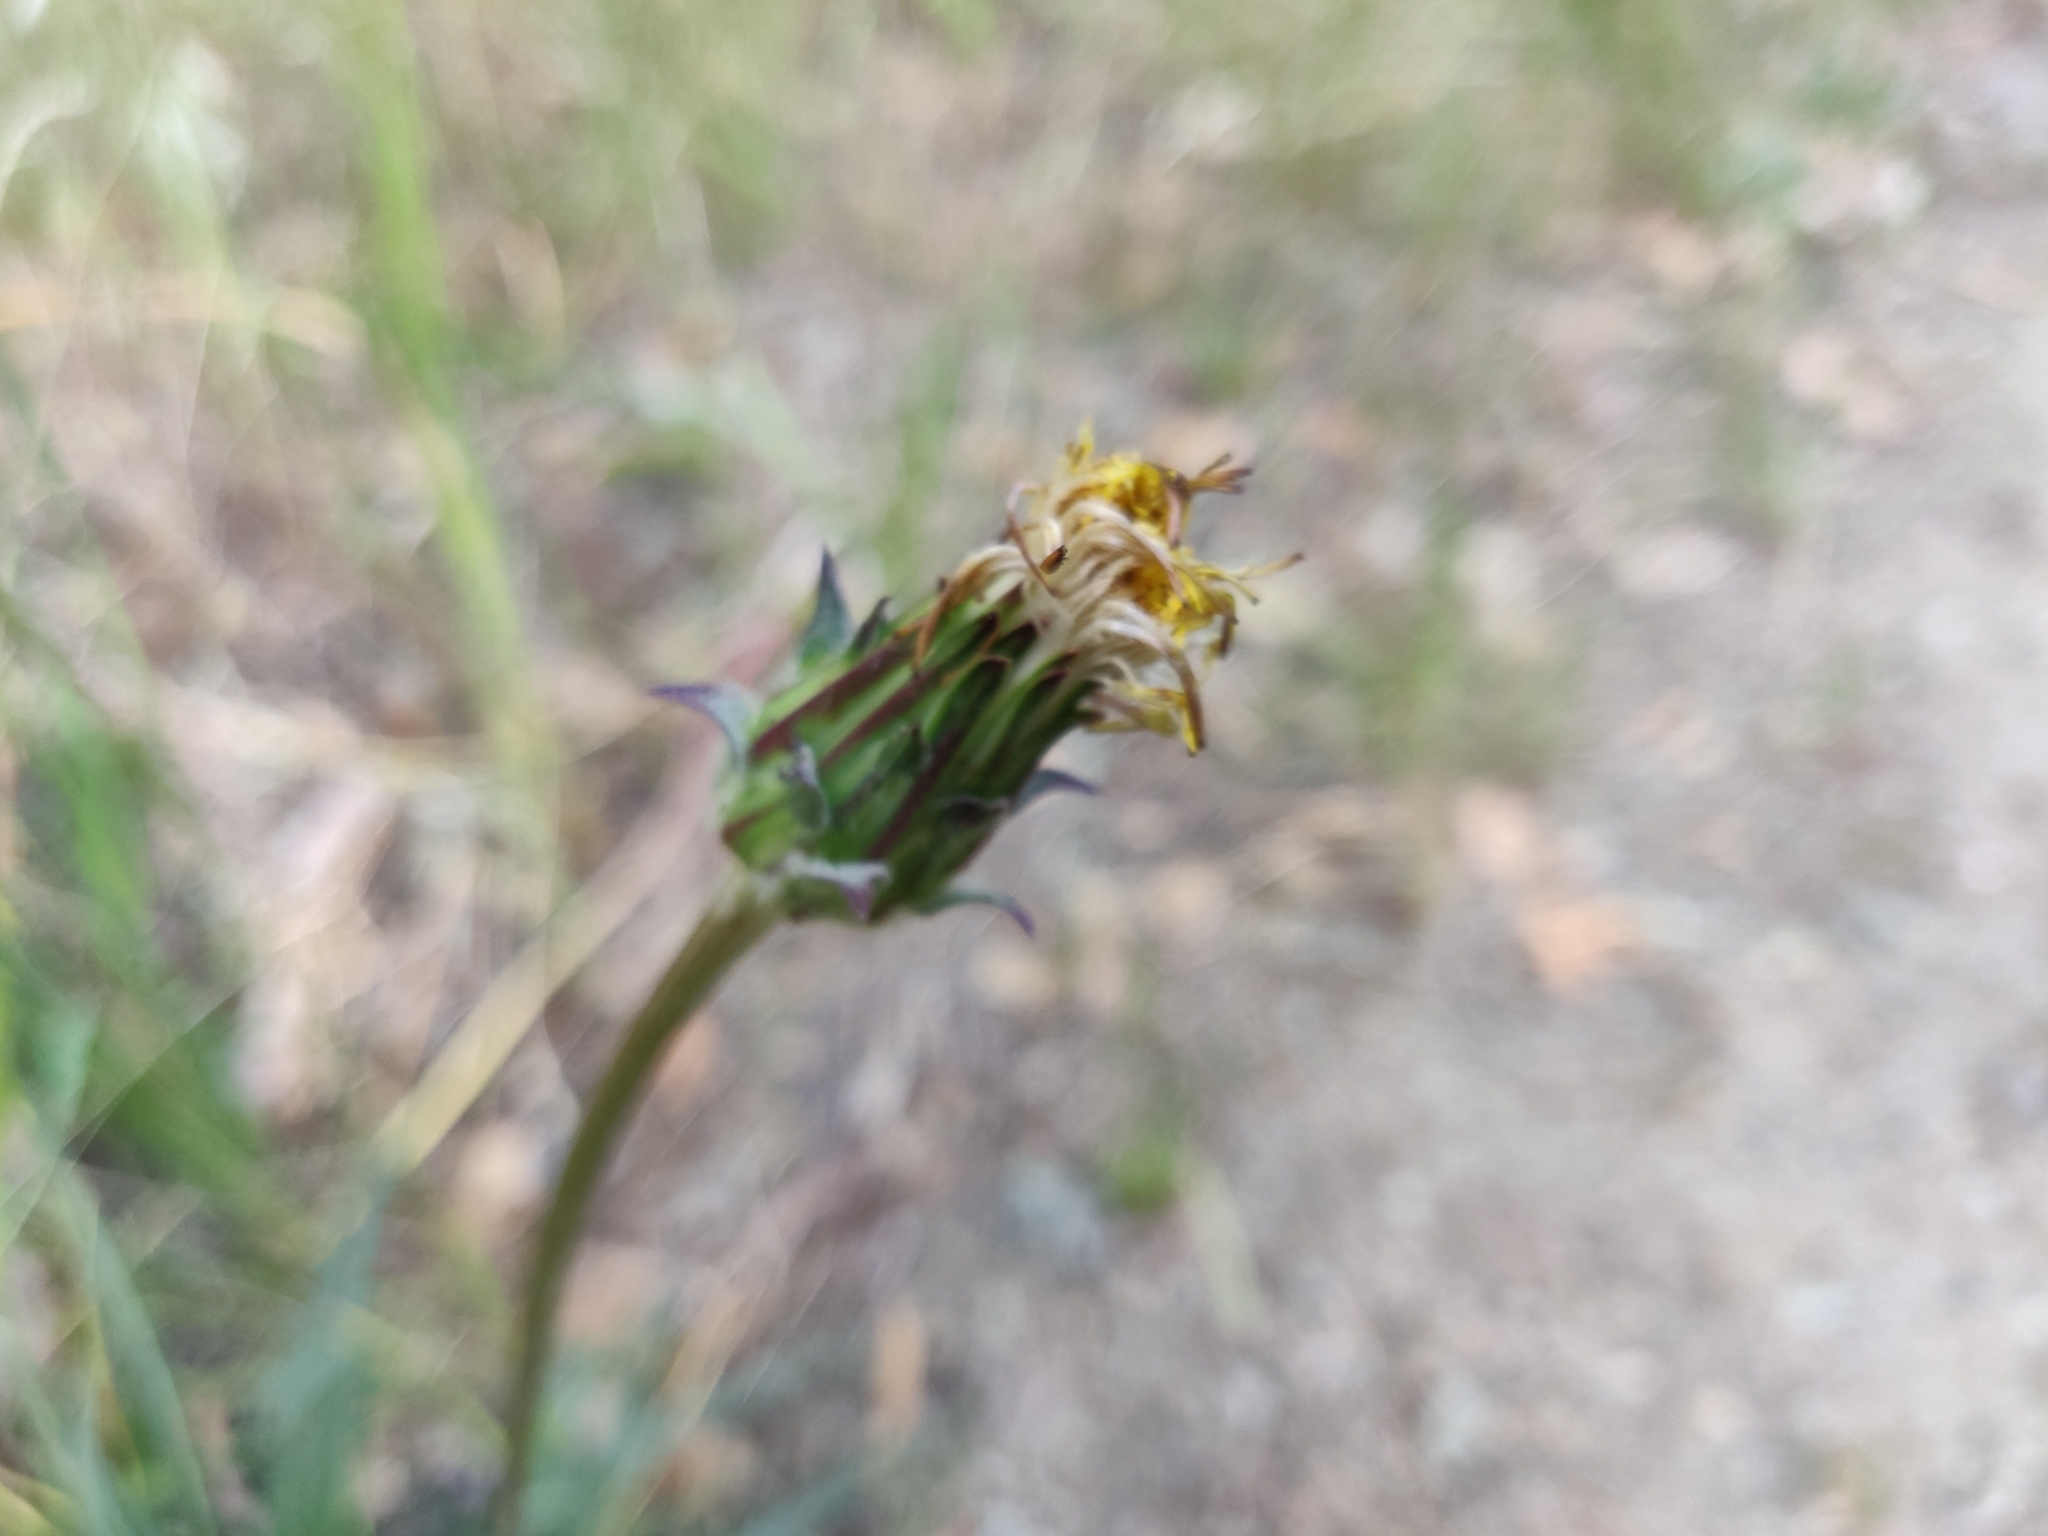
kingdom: Plantae
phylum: Tracheophyta
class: Magnoliopsida
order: Asterales
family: Asteraceae
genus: Agoseris
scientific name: Agoseris grandiflora
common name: Grassland agoseris
